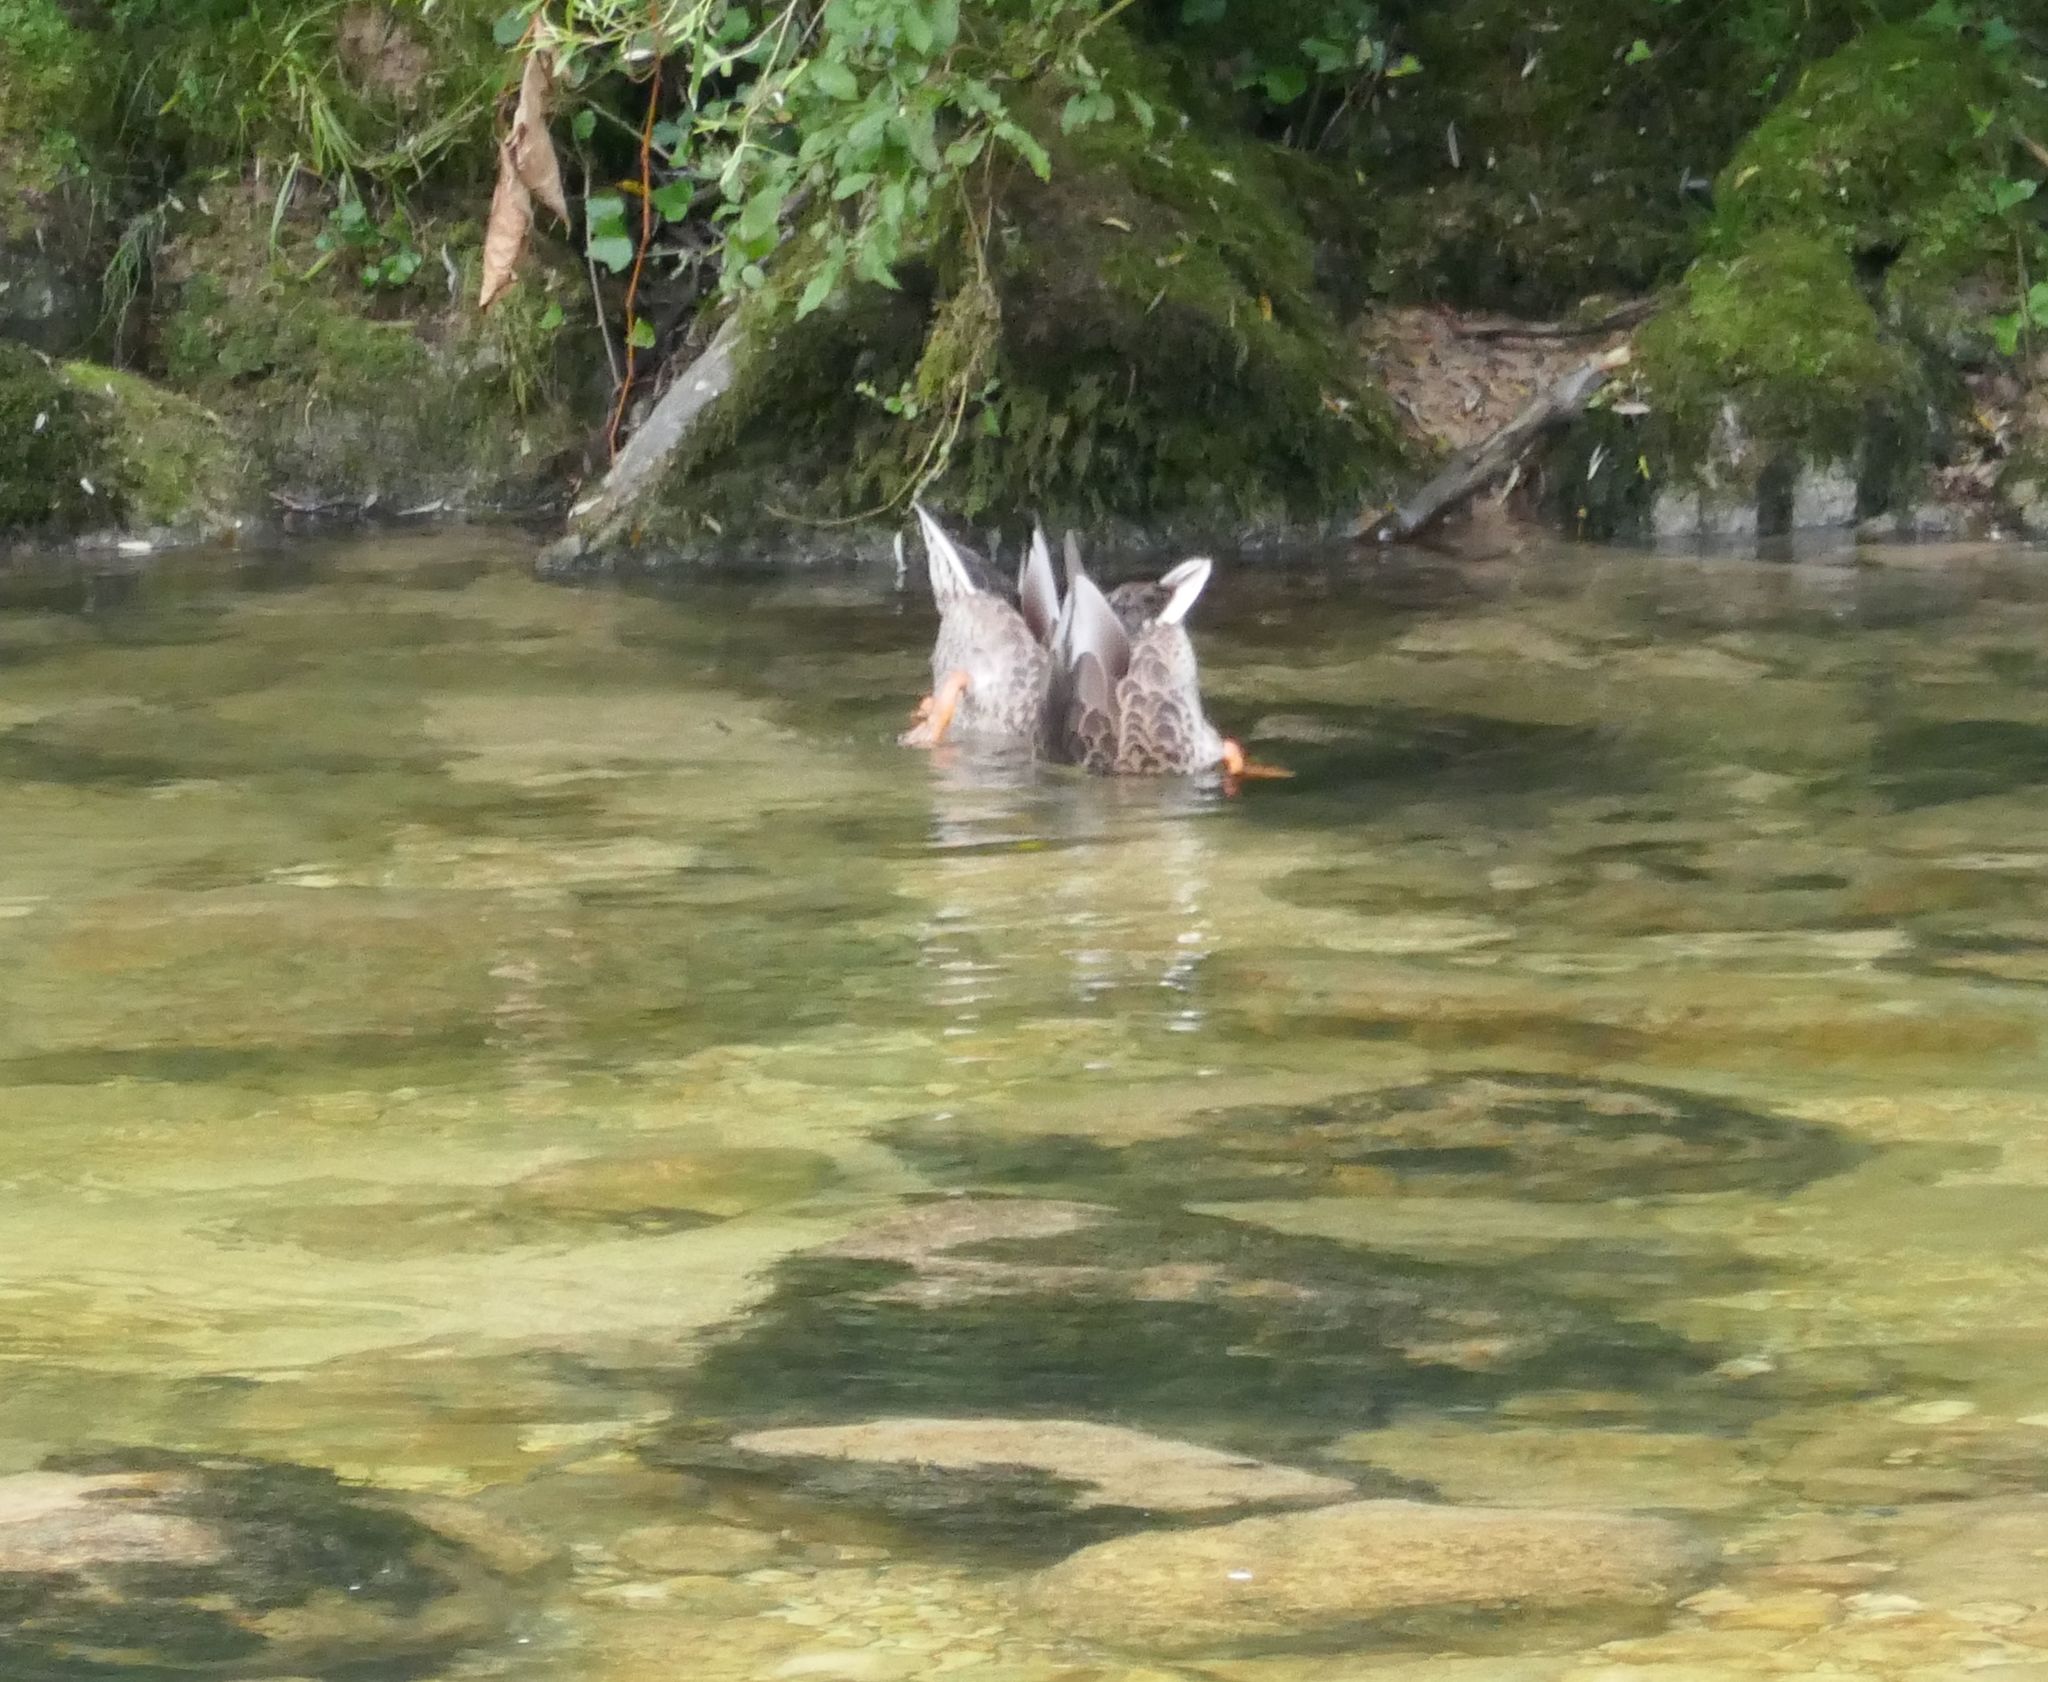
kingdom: Animalia
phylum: Chordata
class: Aves
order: Anseriformes
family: Anatidae
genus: Anas
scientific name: Anas platyrhynchos
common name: Mallard
